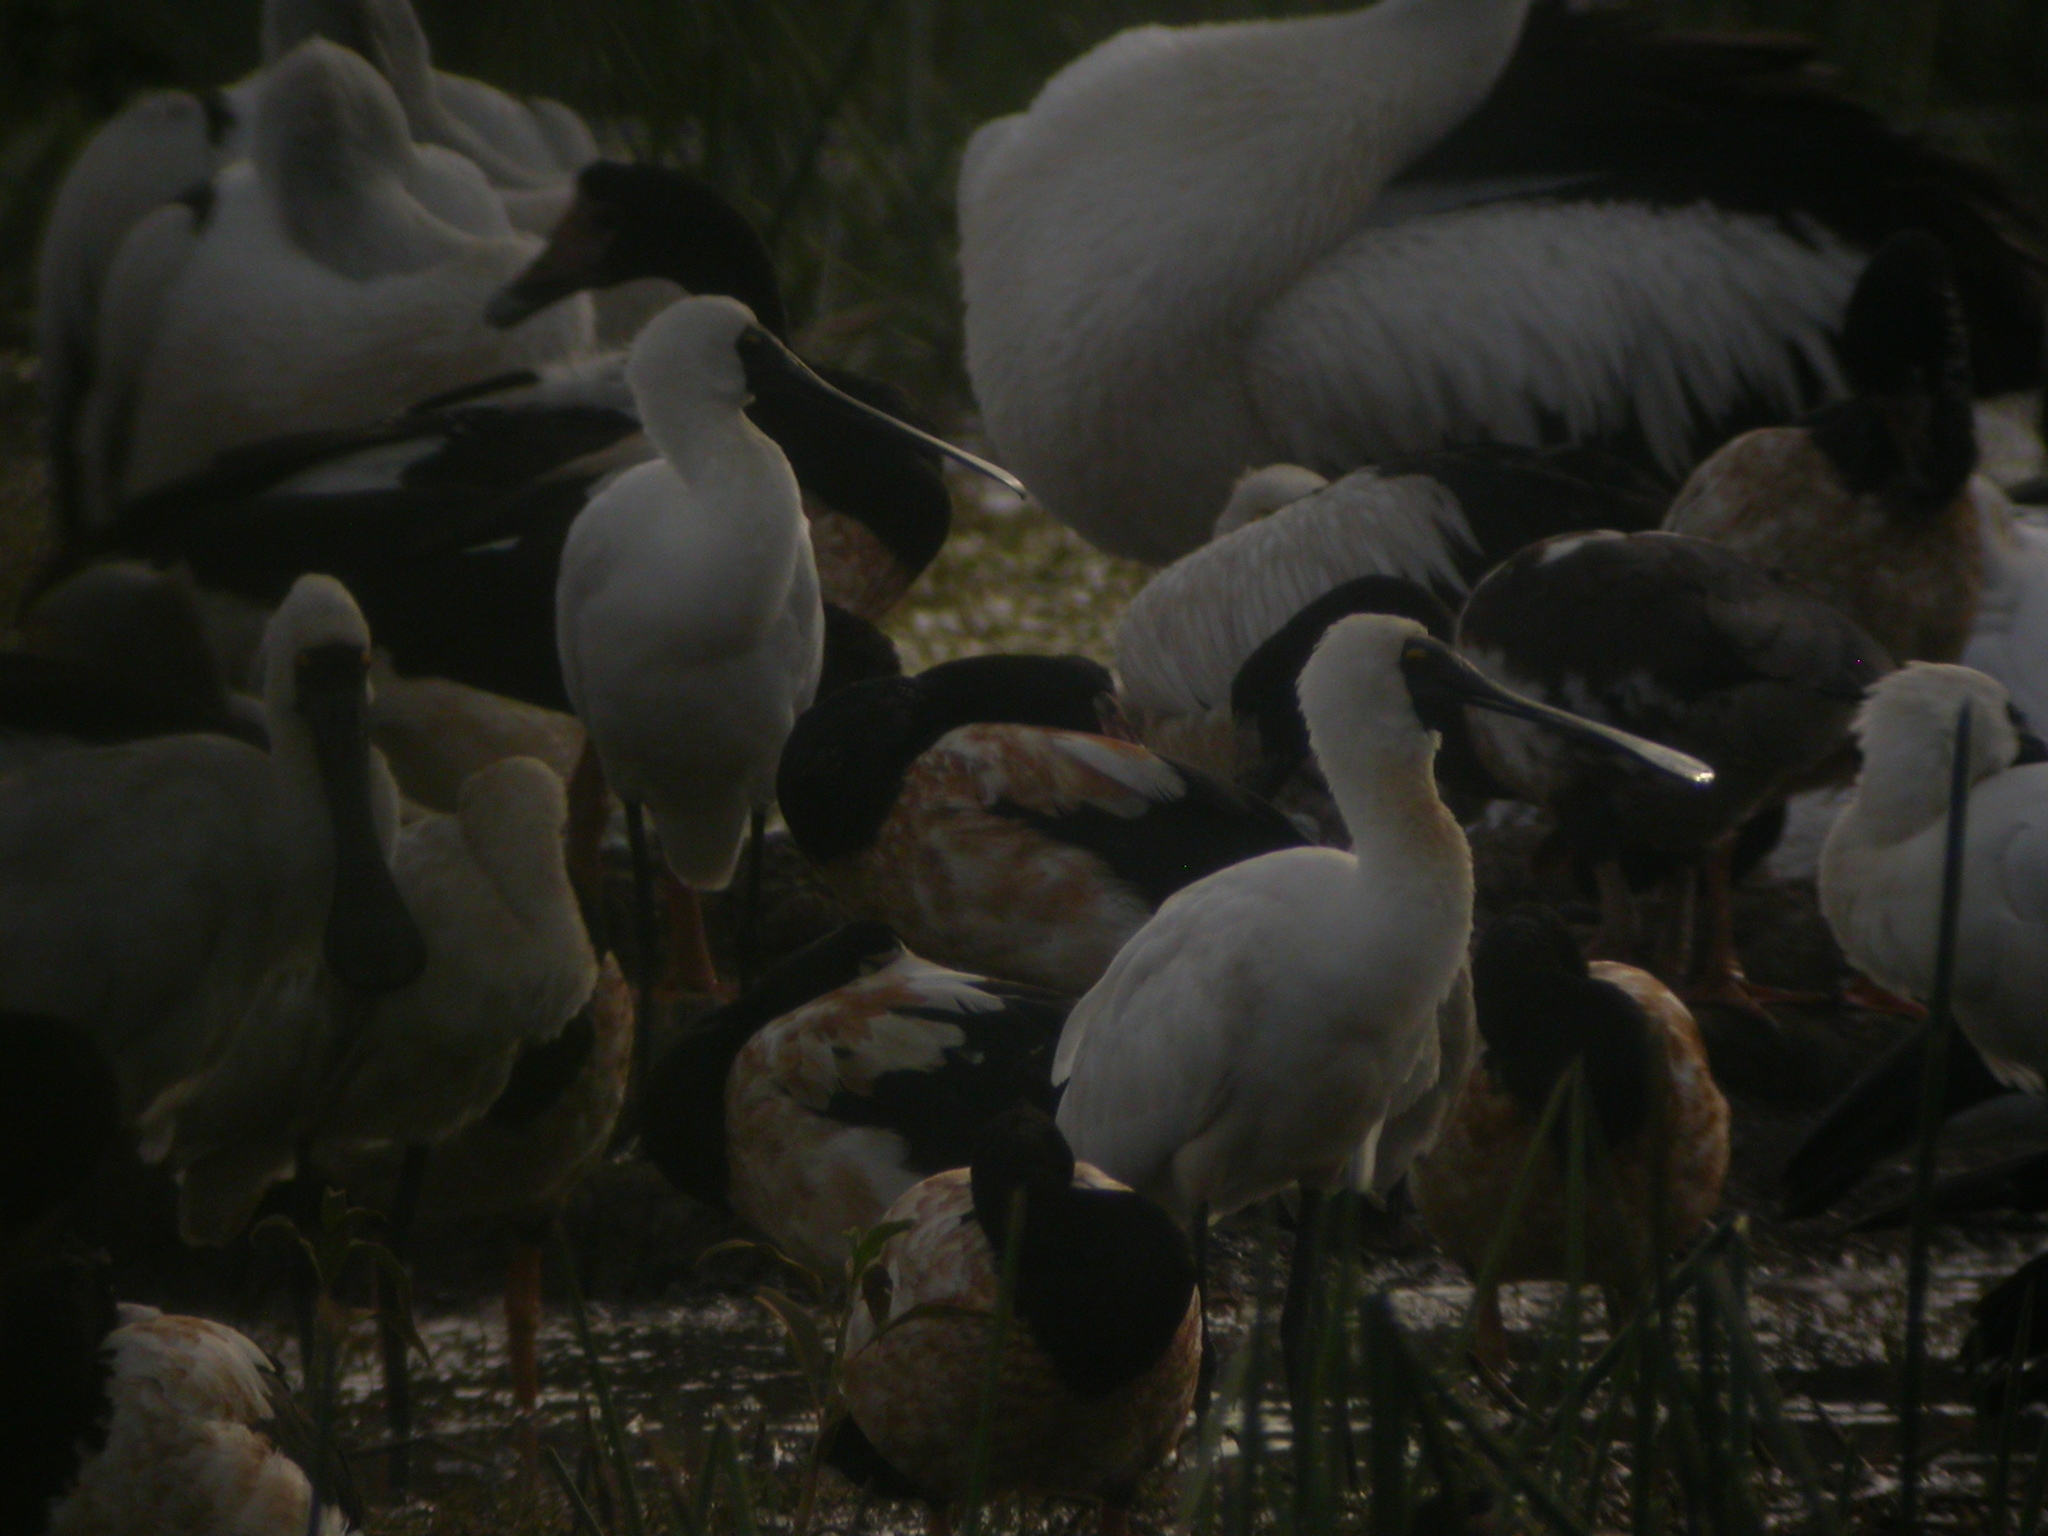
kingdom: Animalia
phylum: Chordata
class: Aves
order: Pelecaniformes
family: Threskiornithidae
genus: Platalea
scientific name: Platalea regia
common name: Royal spoonbill
